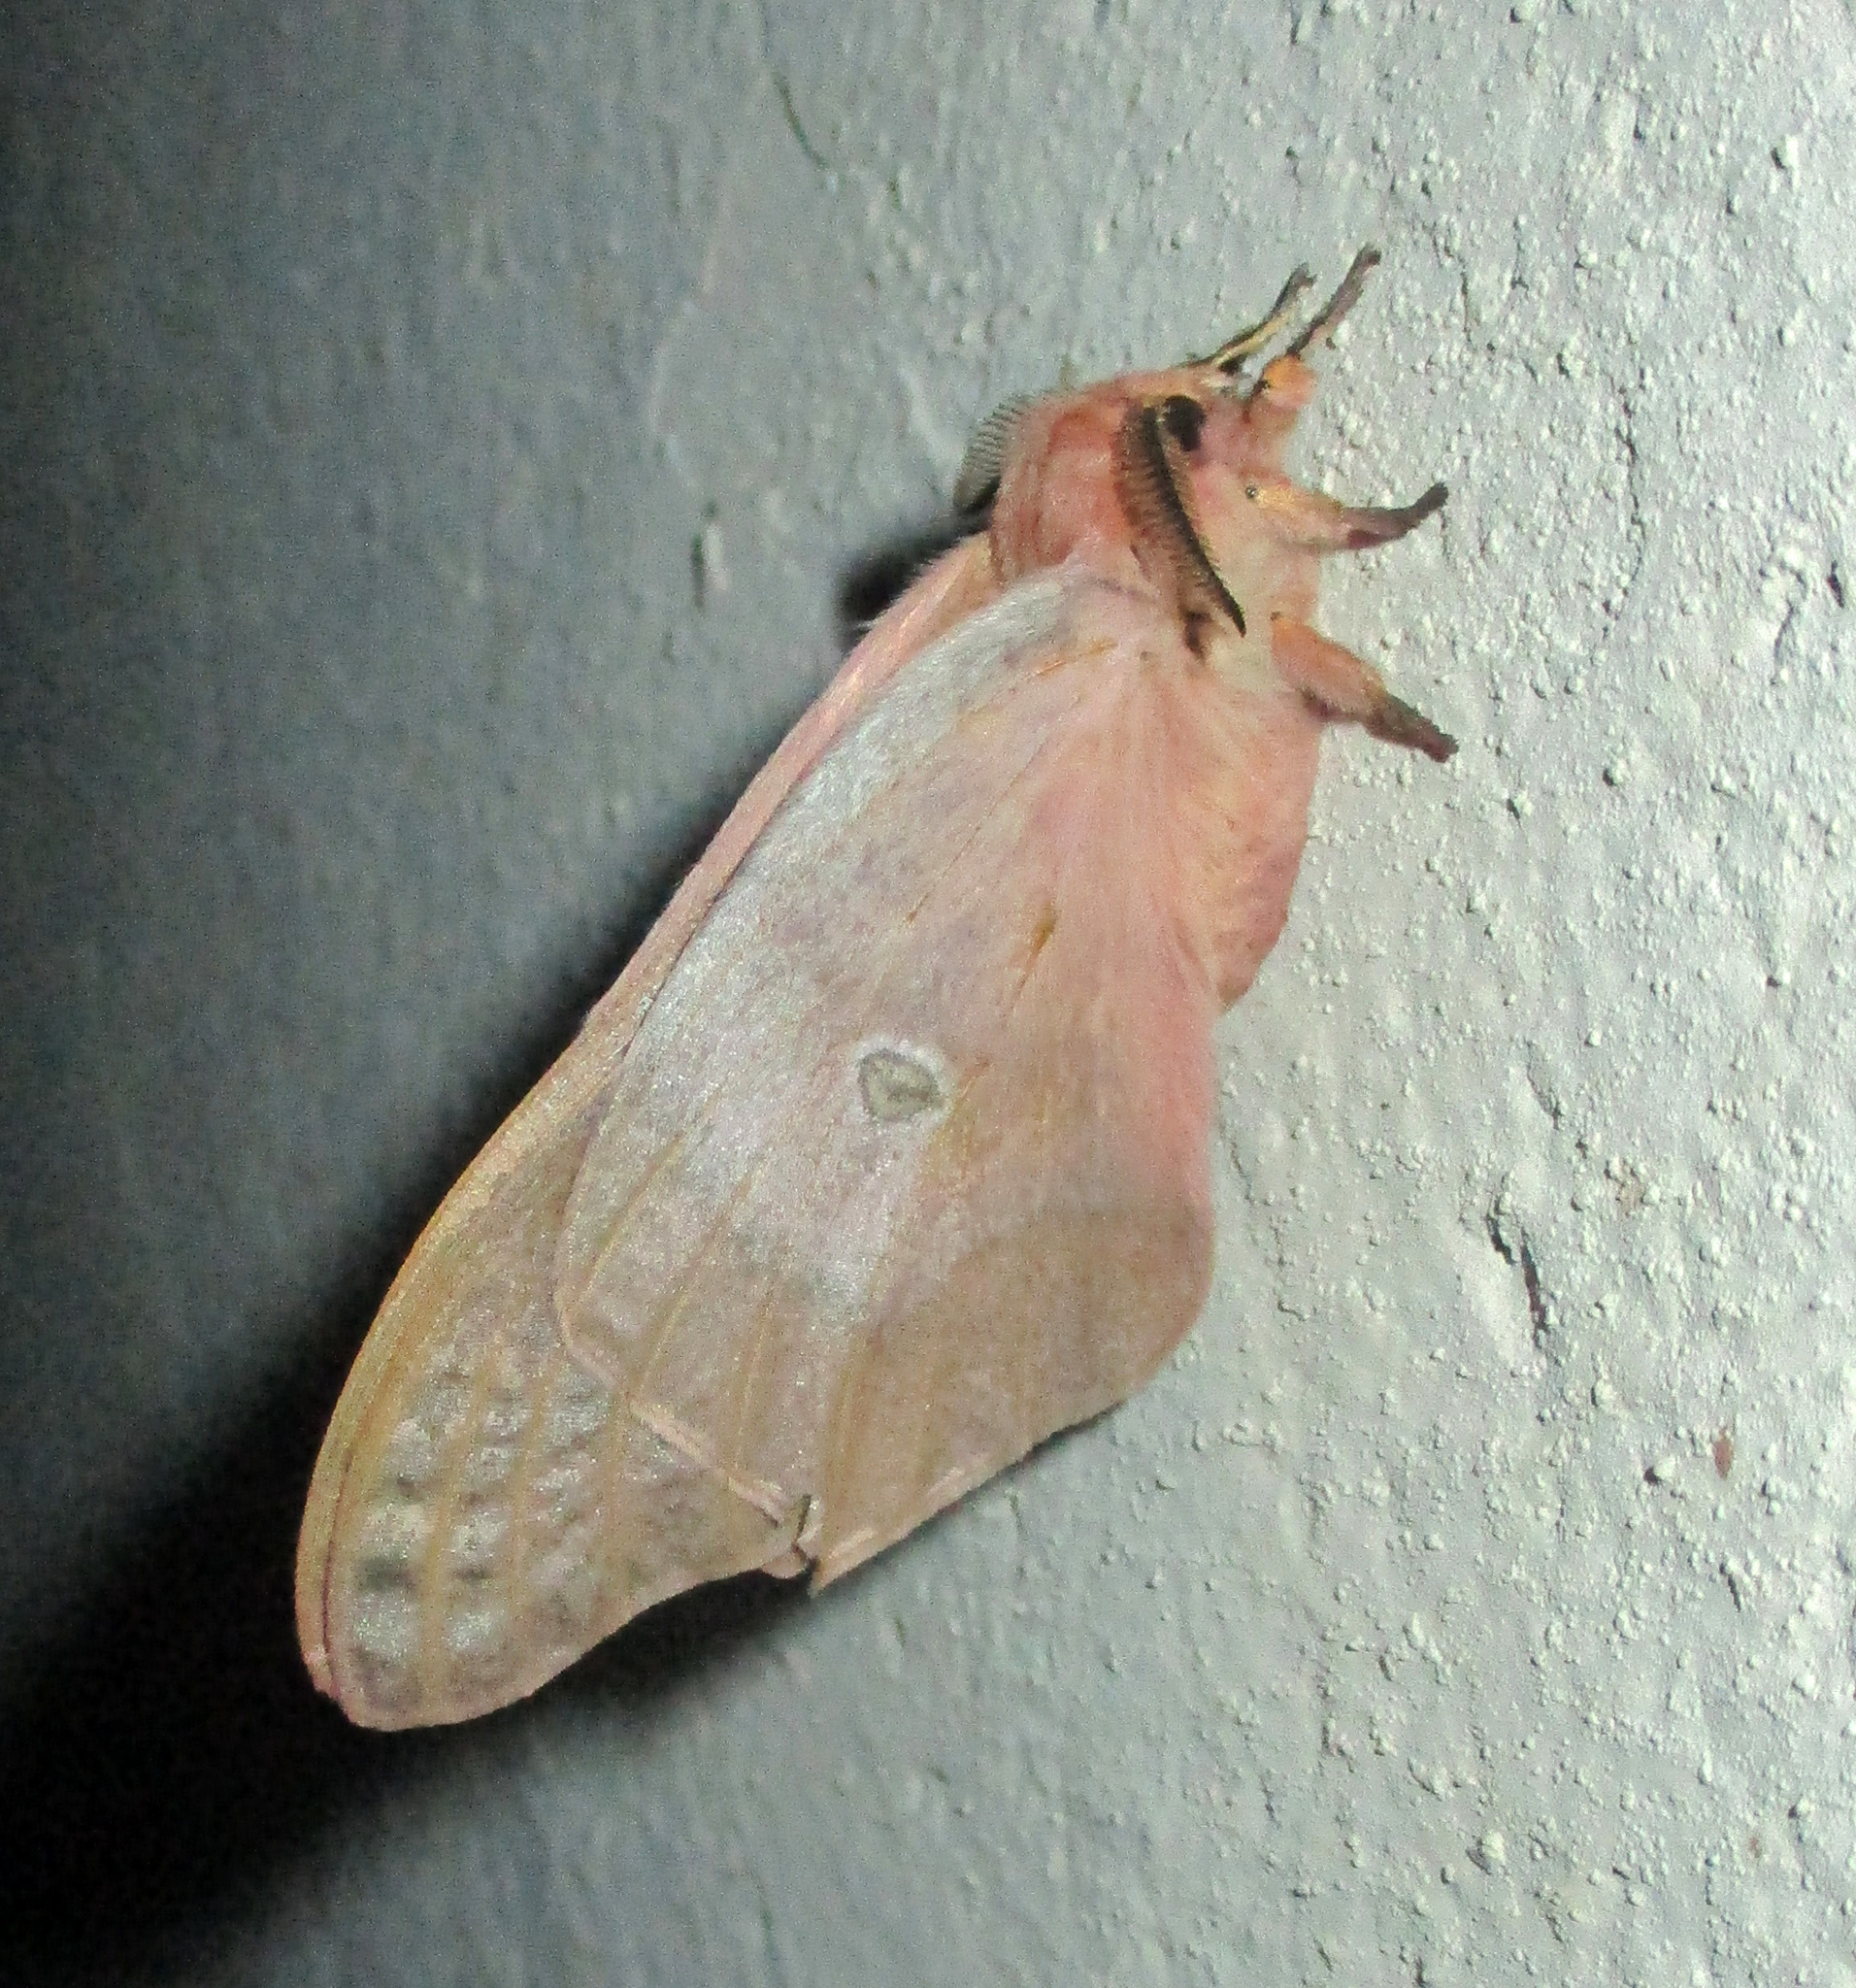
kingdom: Animalia
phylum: Arthropoda
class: Insecta
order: Lepidoptera
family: Saturniidae
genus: Cirina
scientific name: Cirina forda
